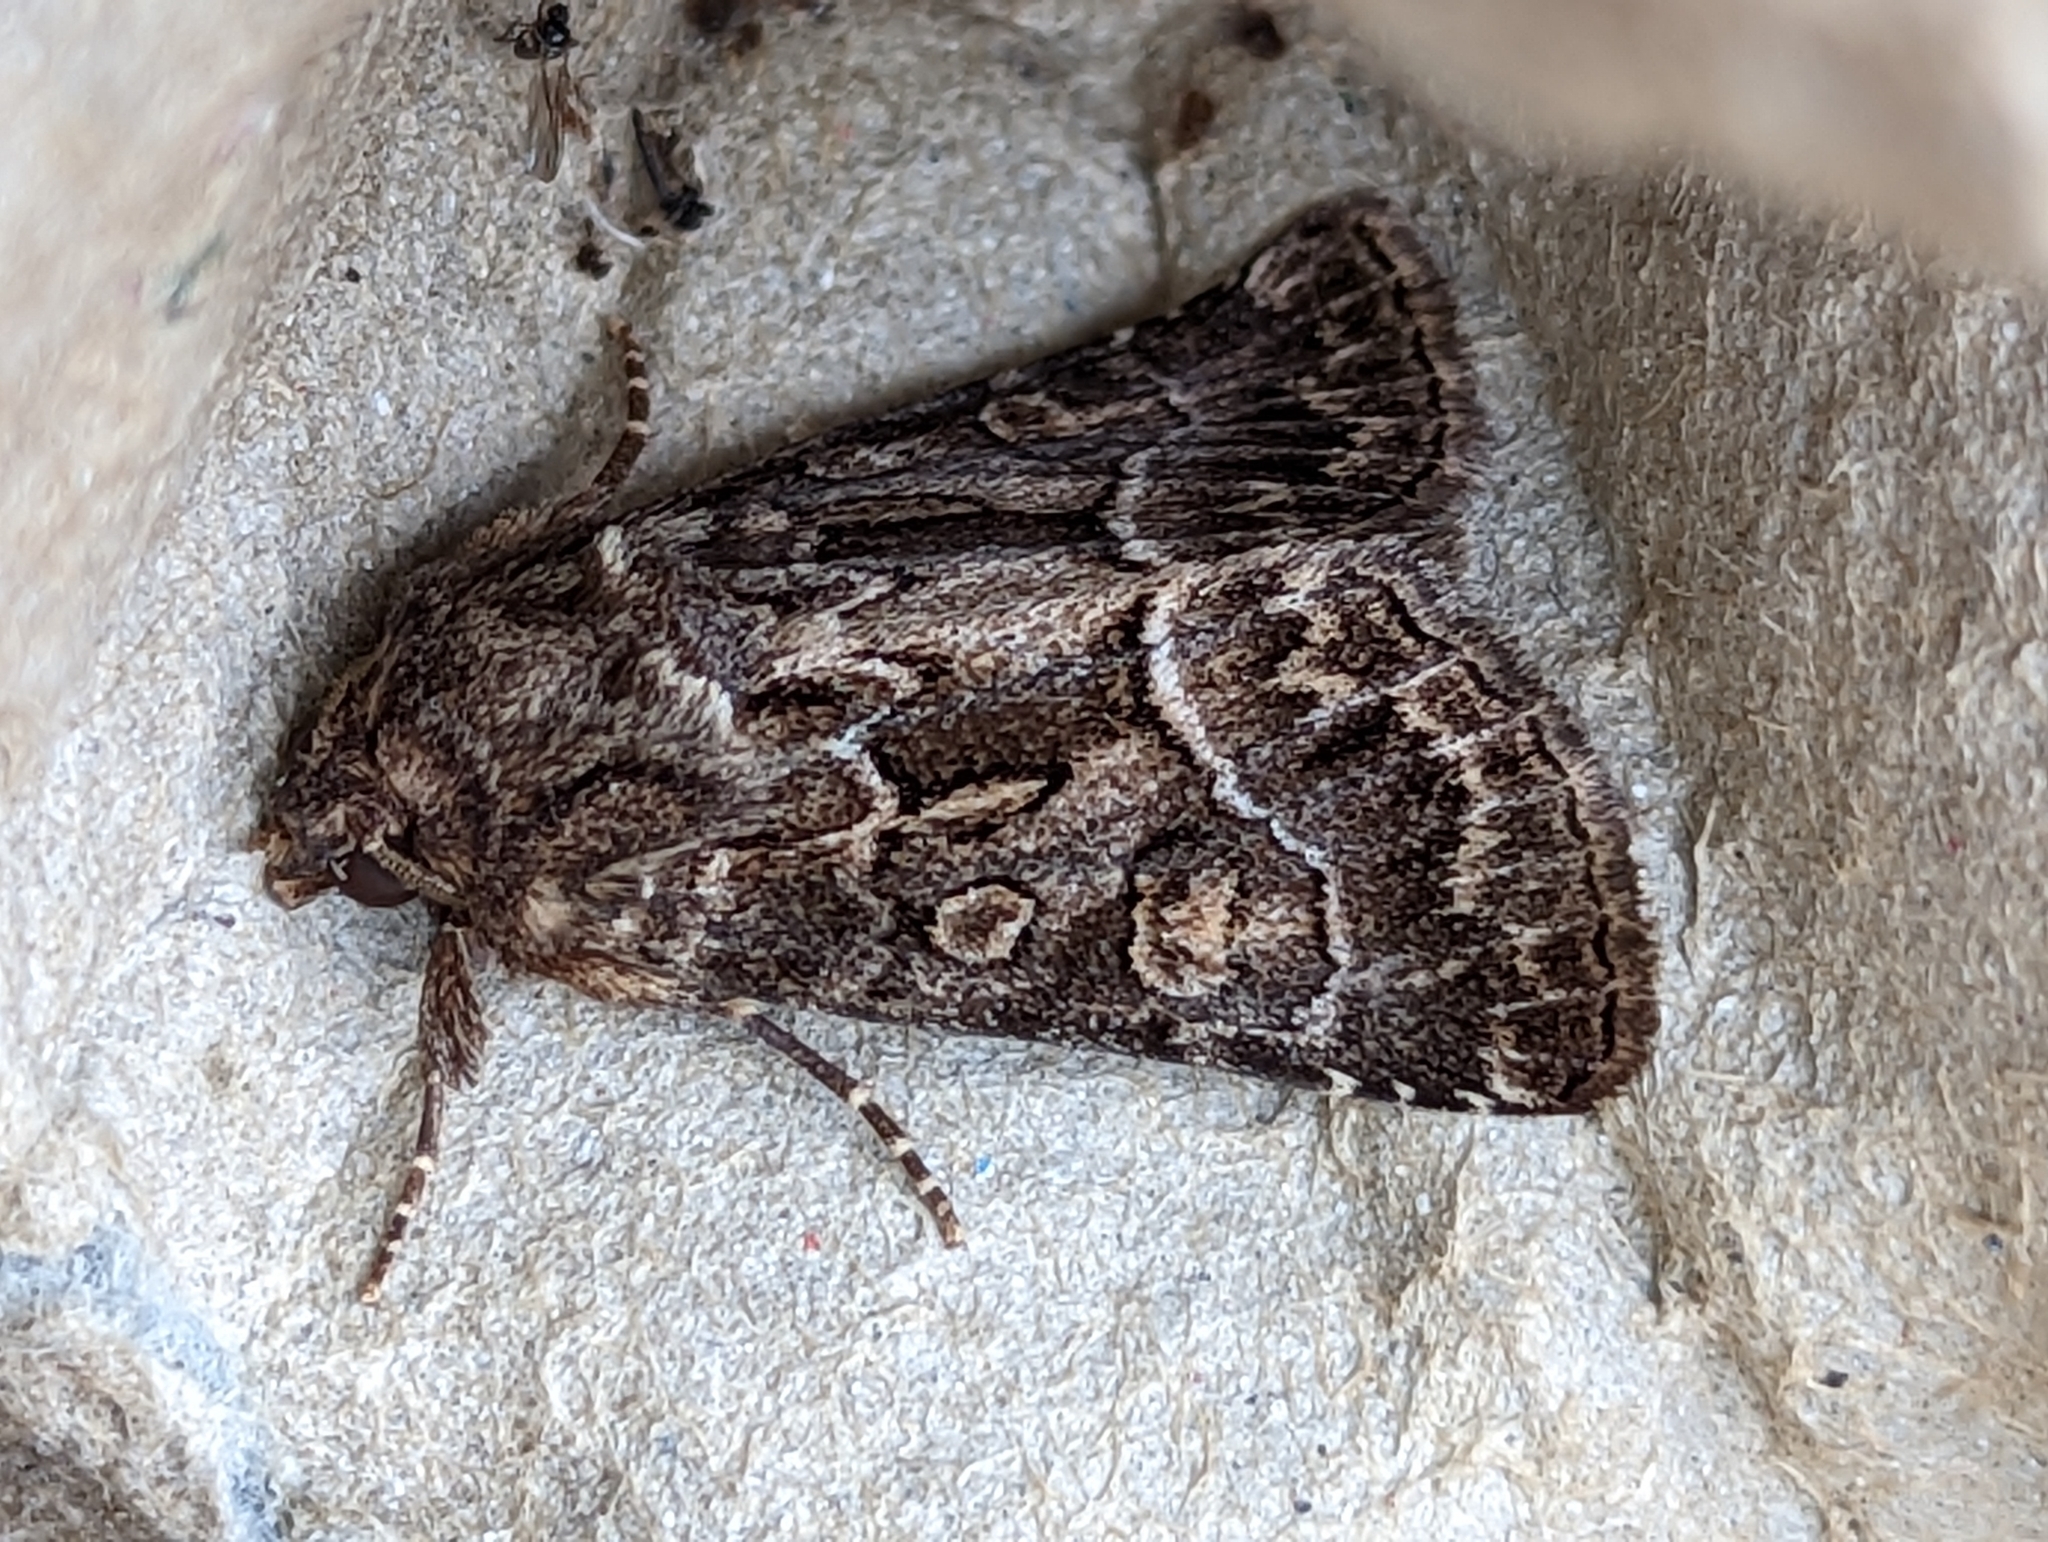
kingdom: Animalia
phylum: Arthropoda
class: Insecta
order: Lepidoptera
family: Noctuidae
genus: Thalpophila
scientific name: Thalpophila matura
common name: Straw underwing
